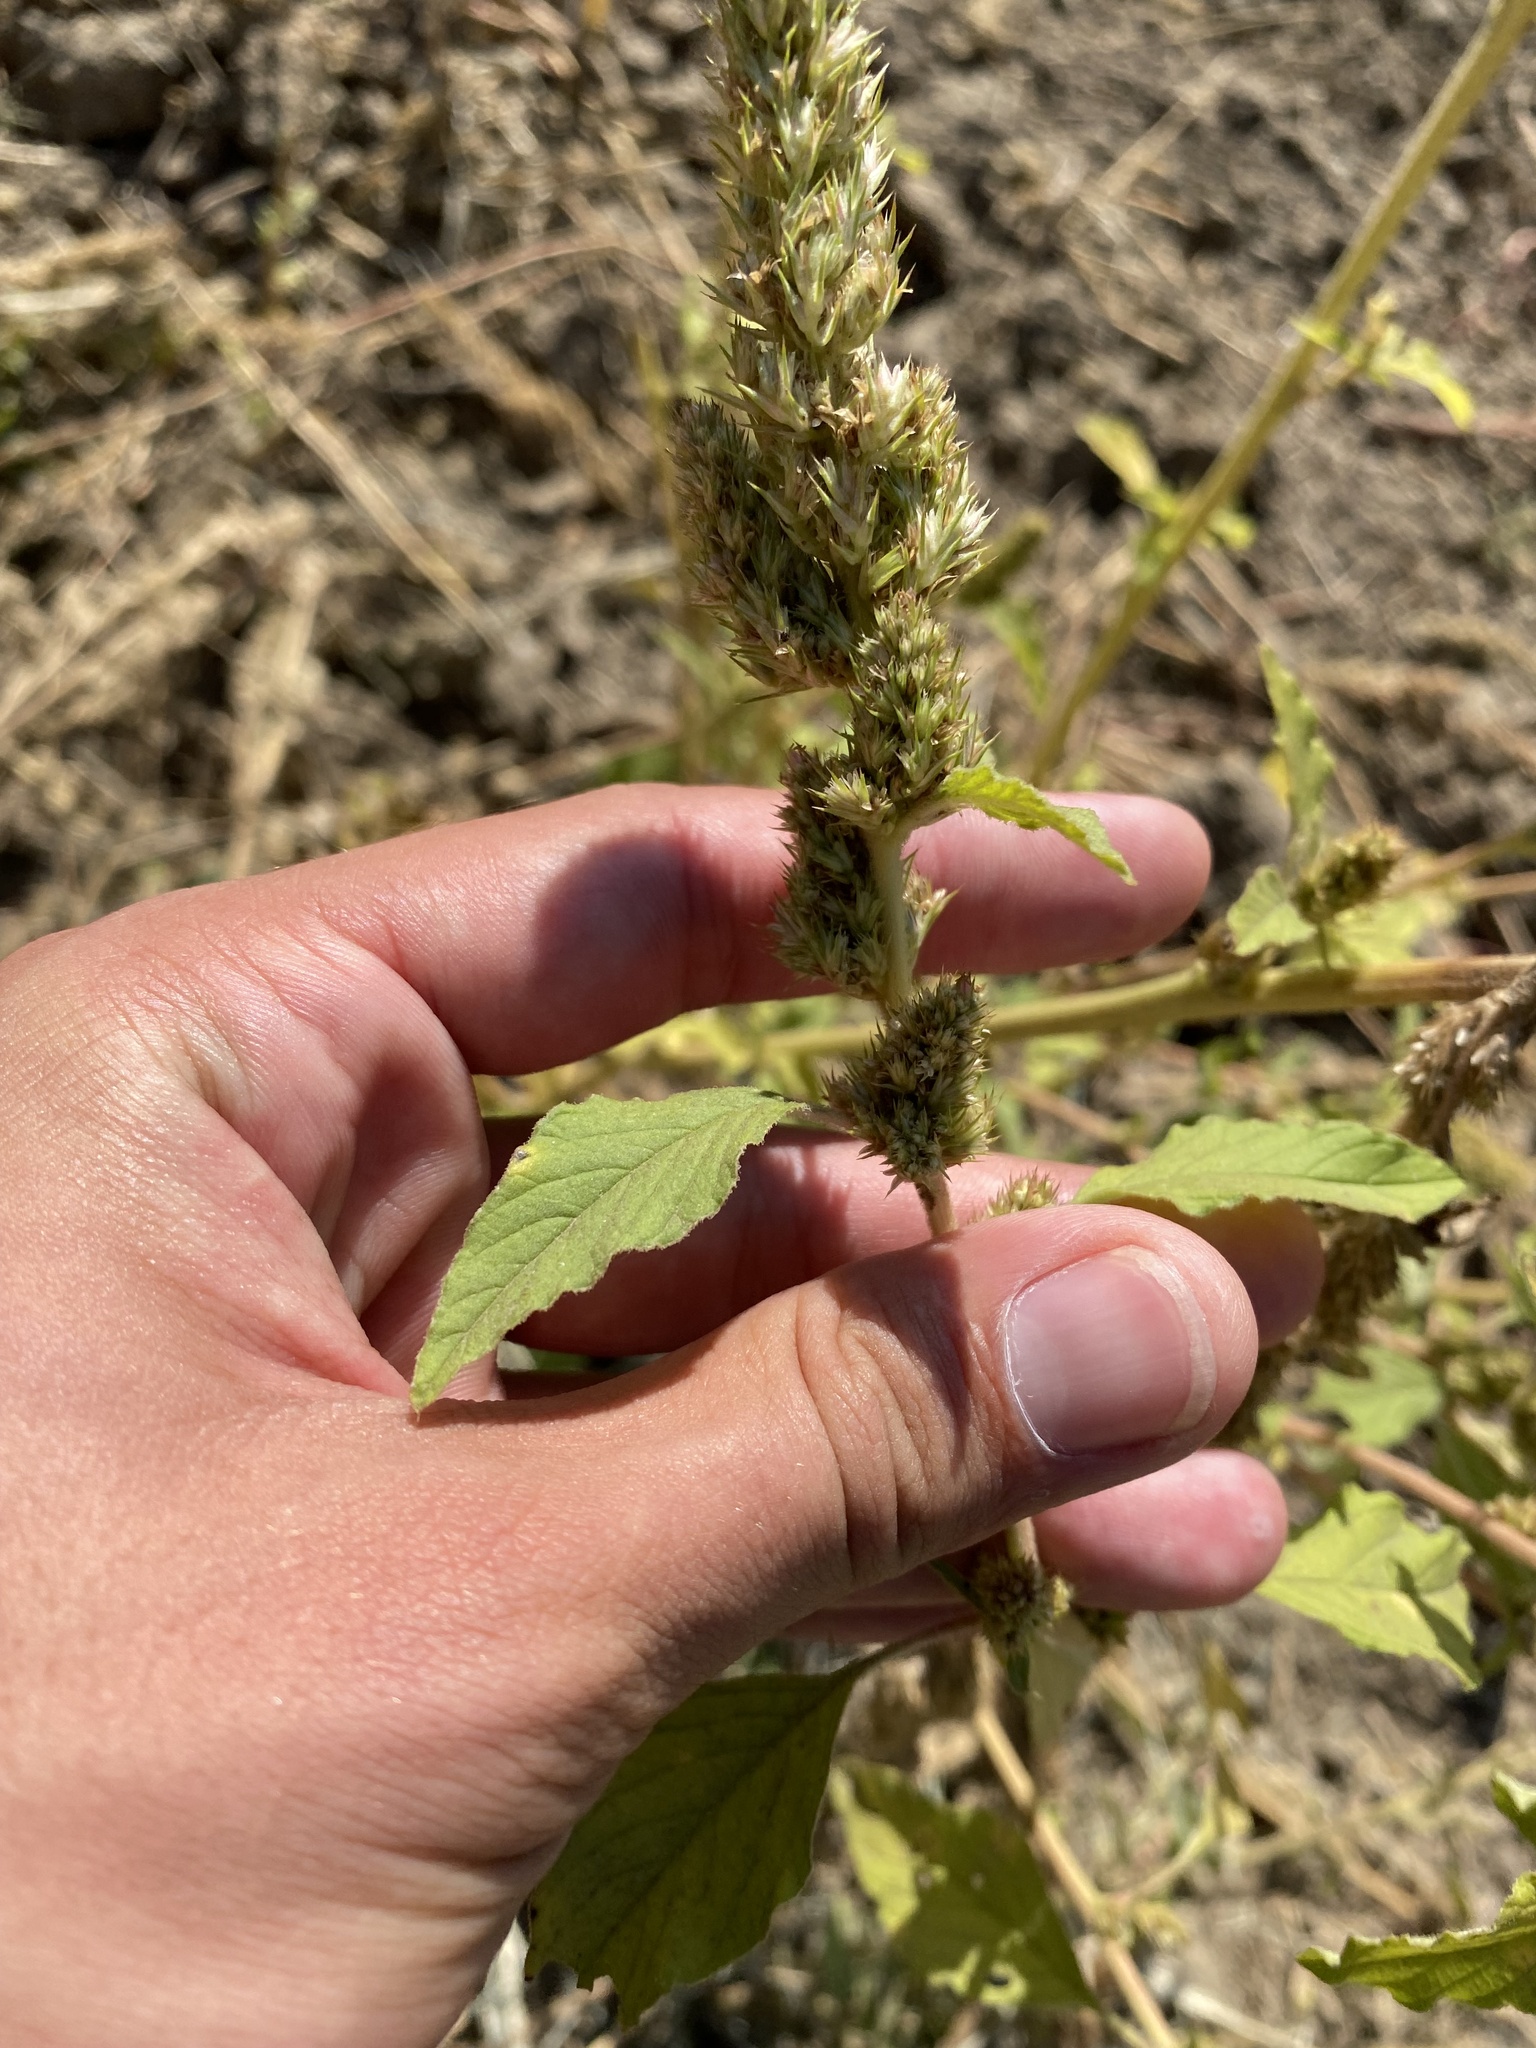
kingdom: Plantae
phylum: Tracheophyta
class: Magnoliopsida
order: Caryophyllales
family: Amaranthaceae
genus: Amaranthus
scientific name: Amaranthus retroflexus
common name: Redroot amaranth
